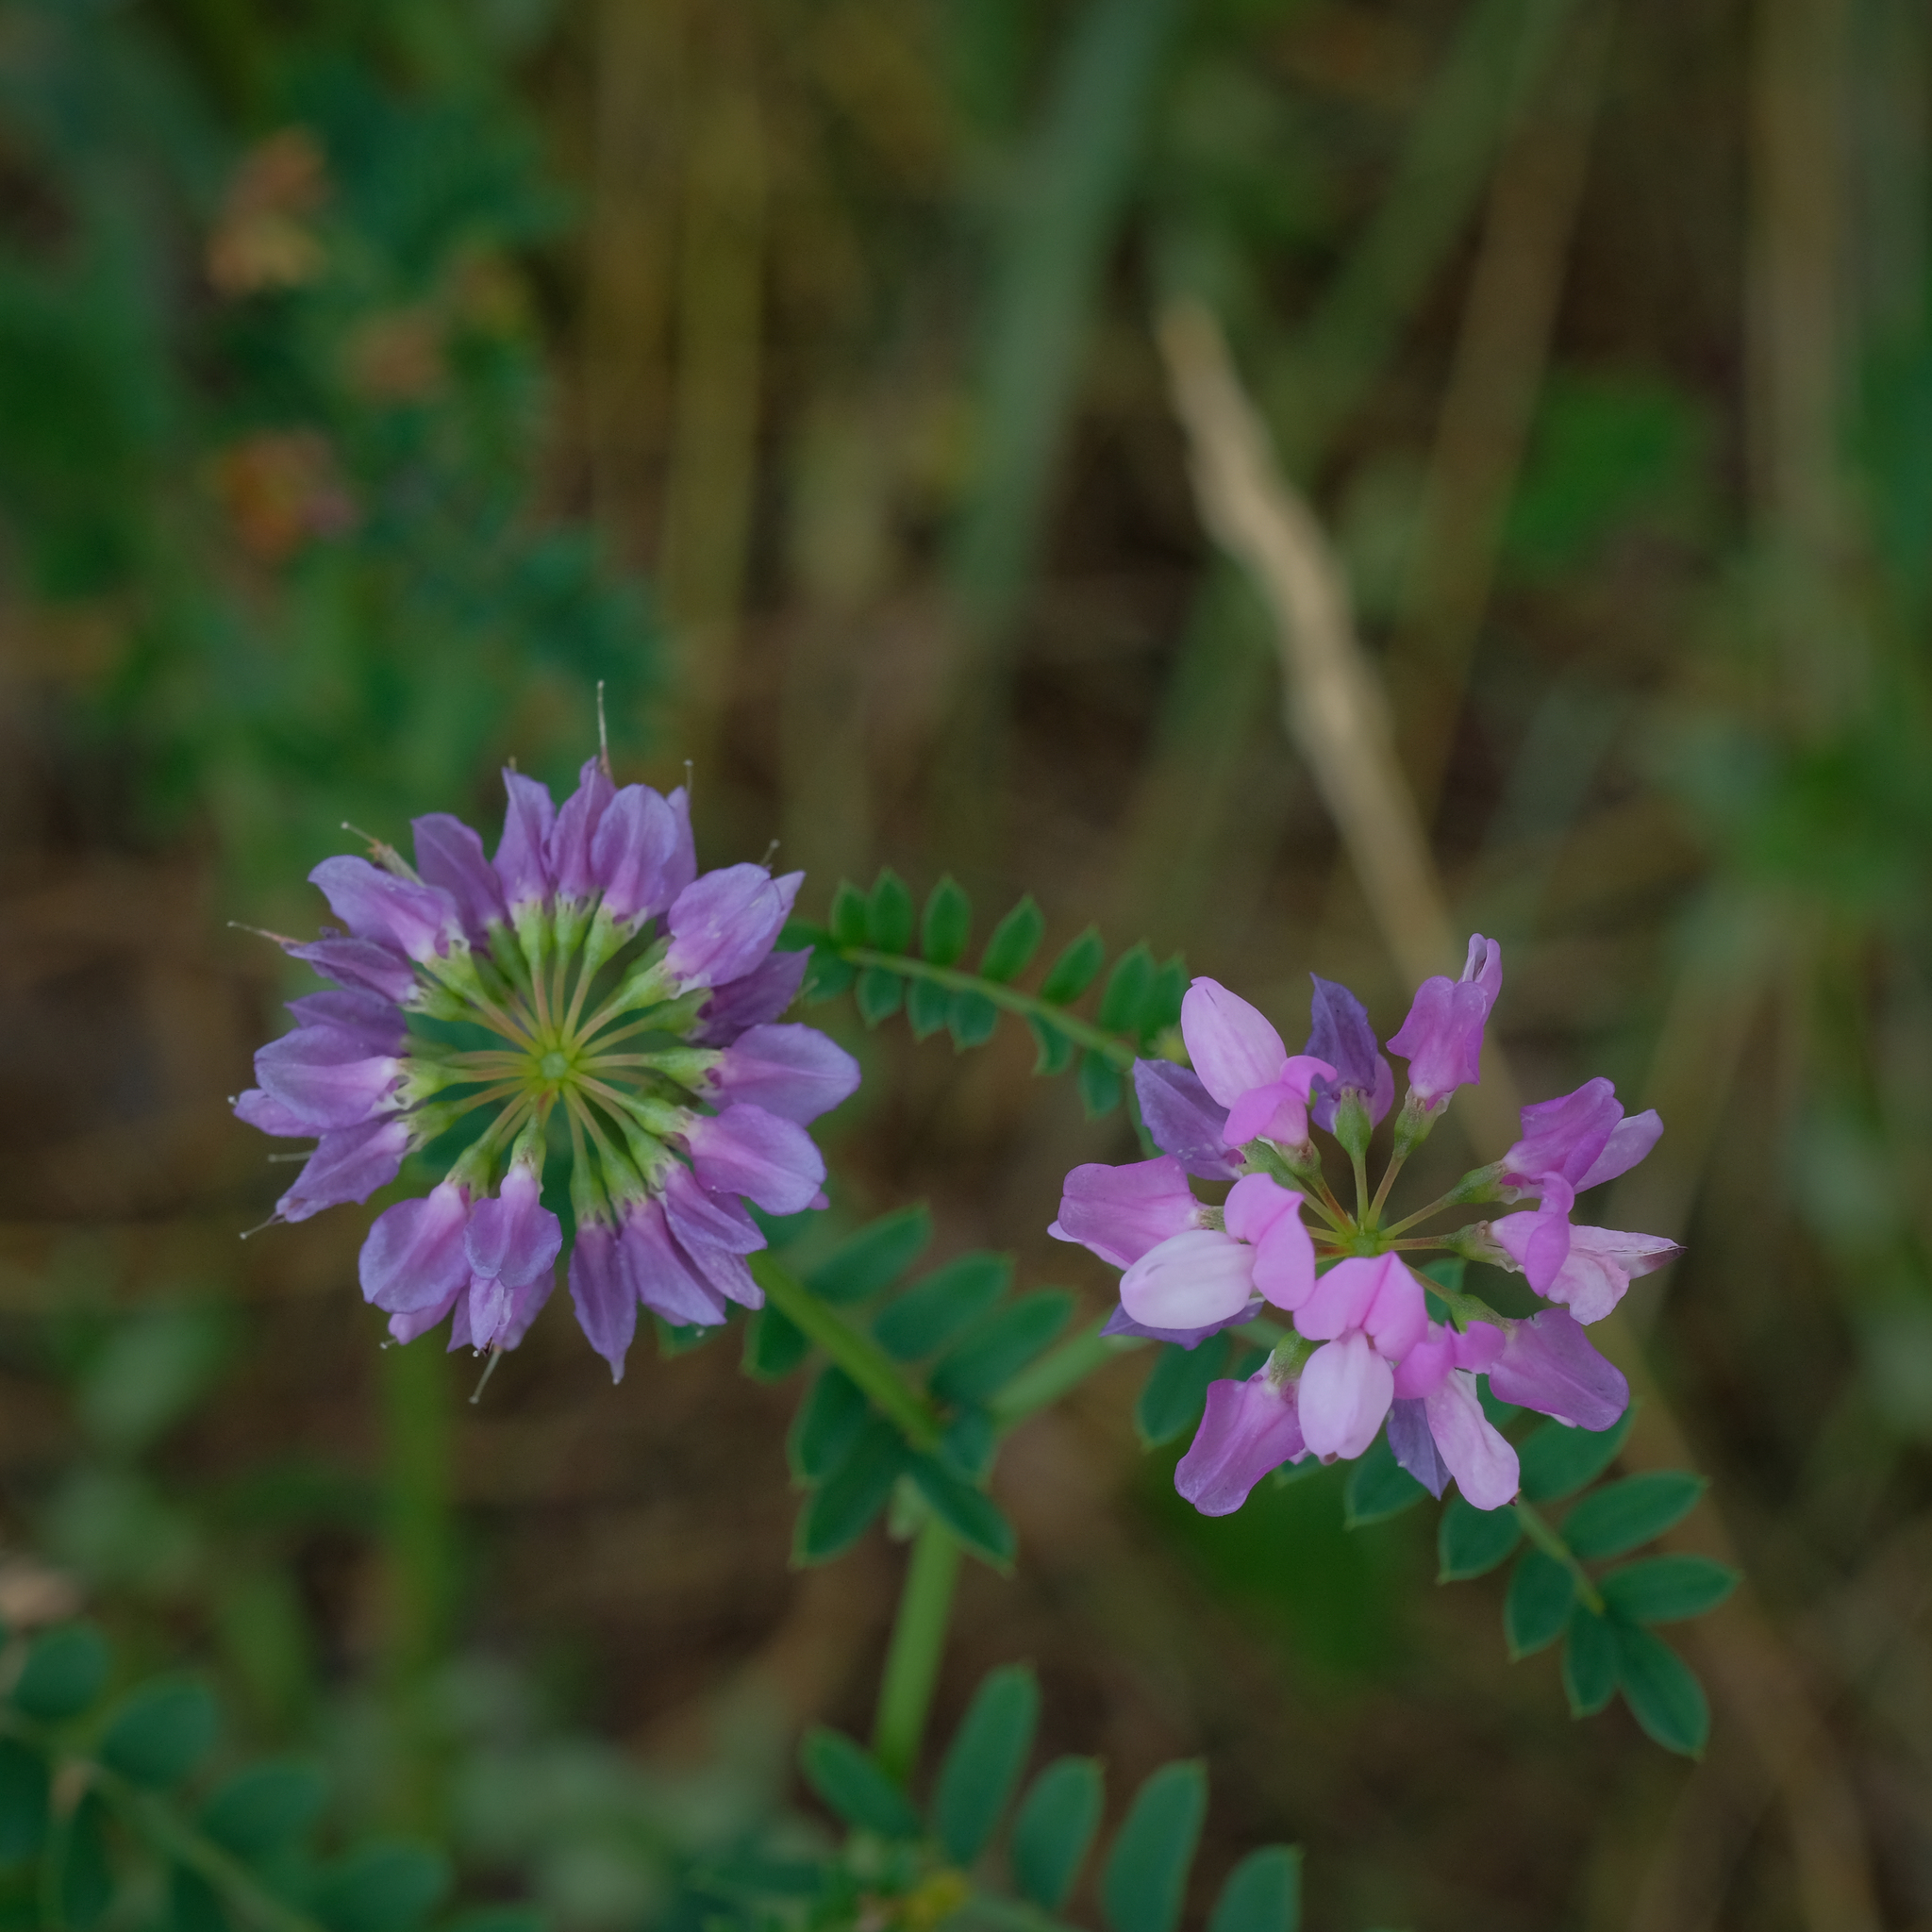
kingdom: Plantae
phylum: Tracheophyta
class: Magnoliopsida
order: Fabales
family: Fabaceae
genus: Coronilla
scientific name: Coronilla varia
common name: Crownvetch
